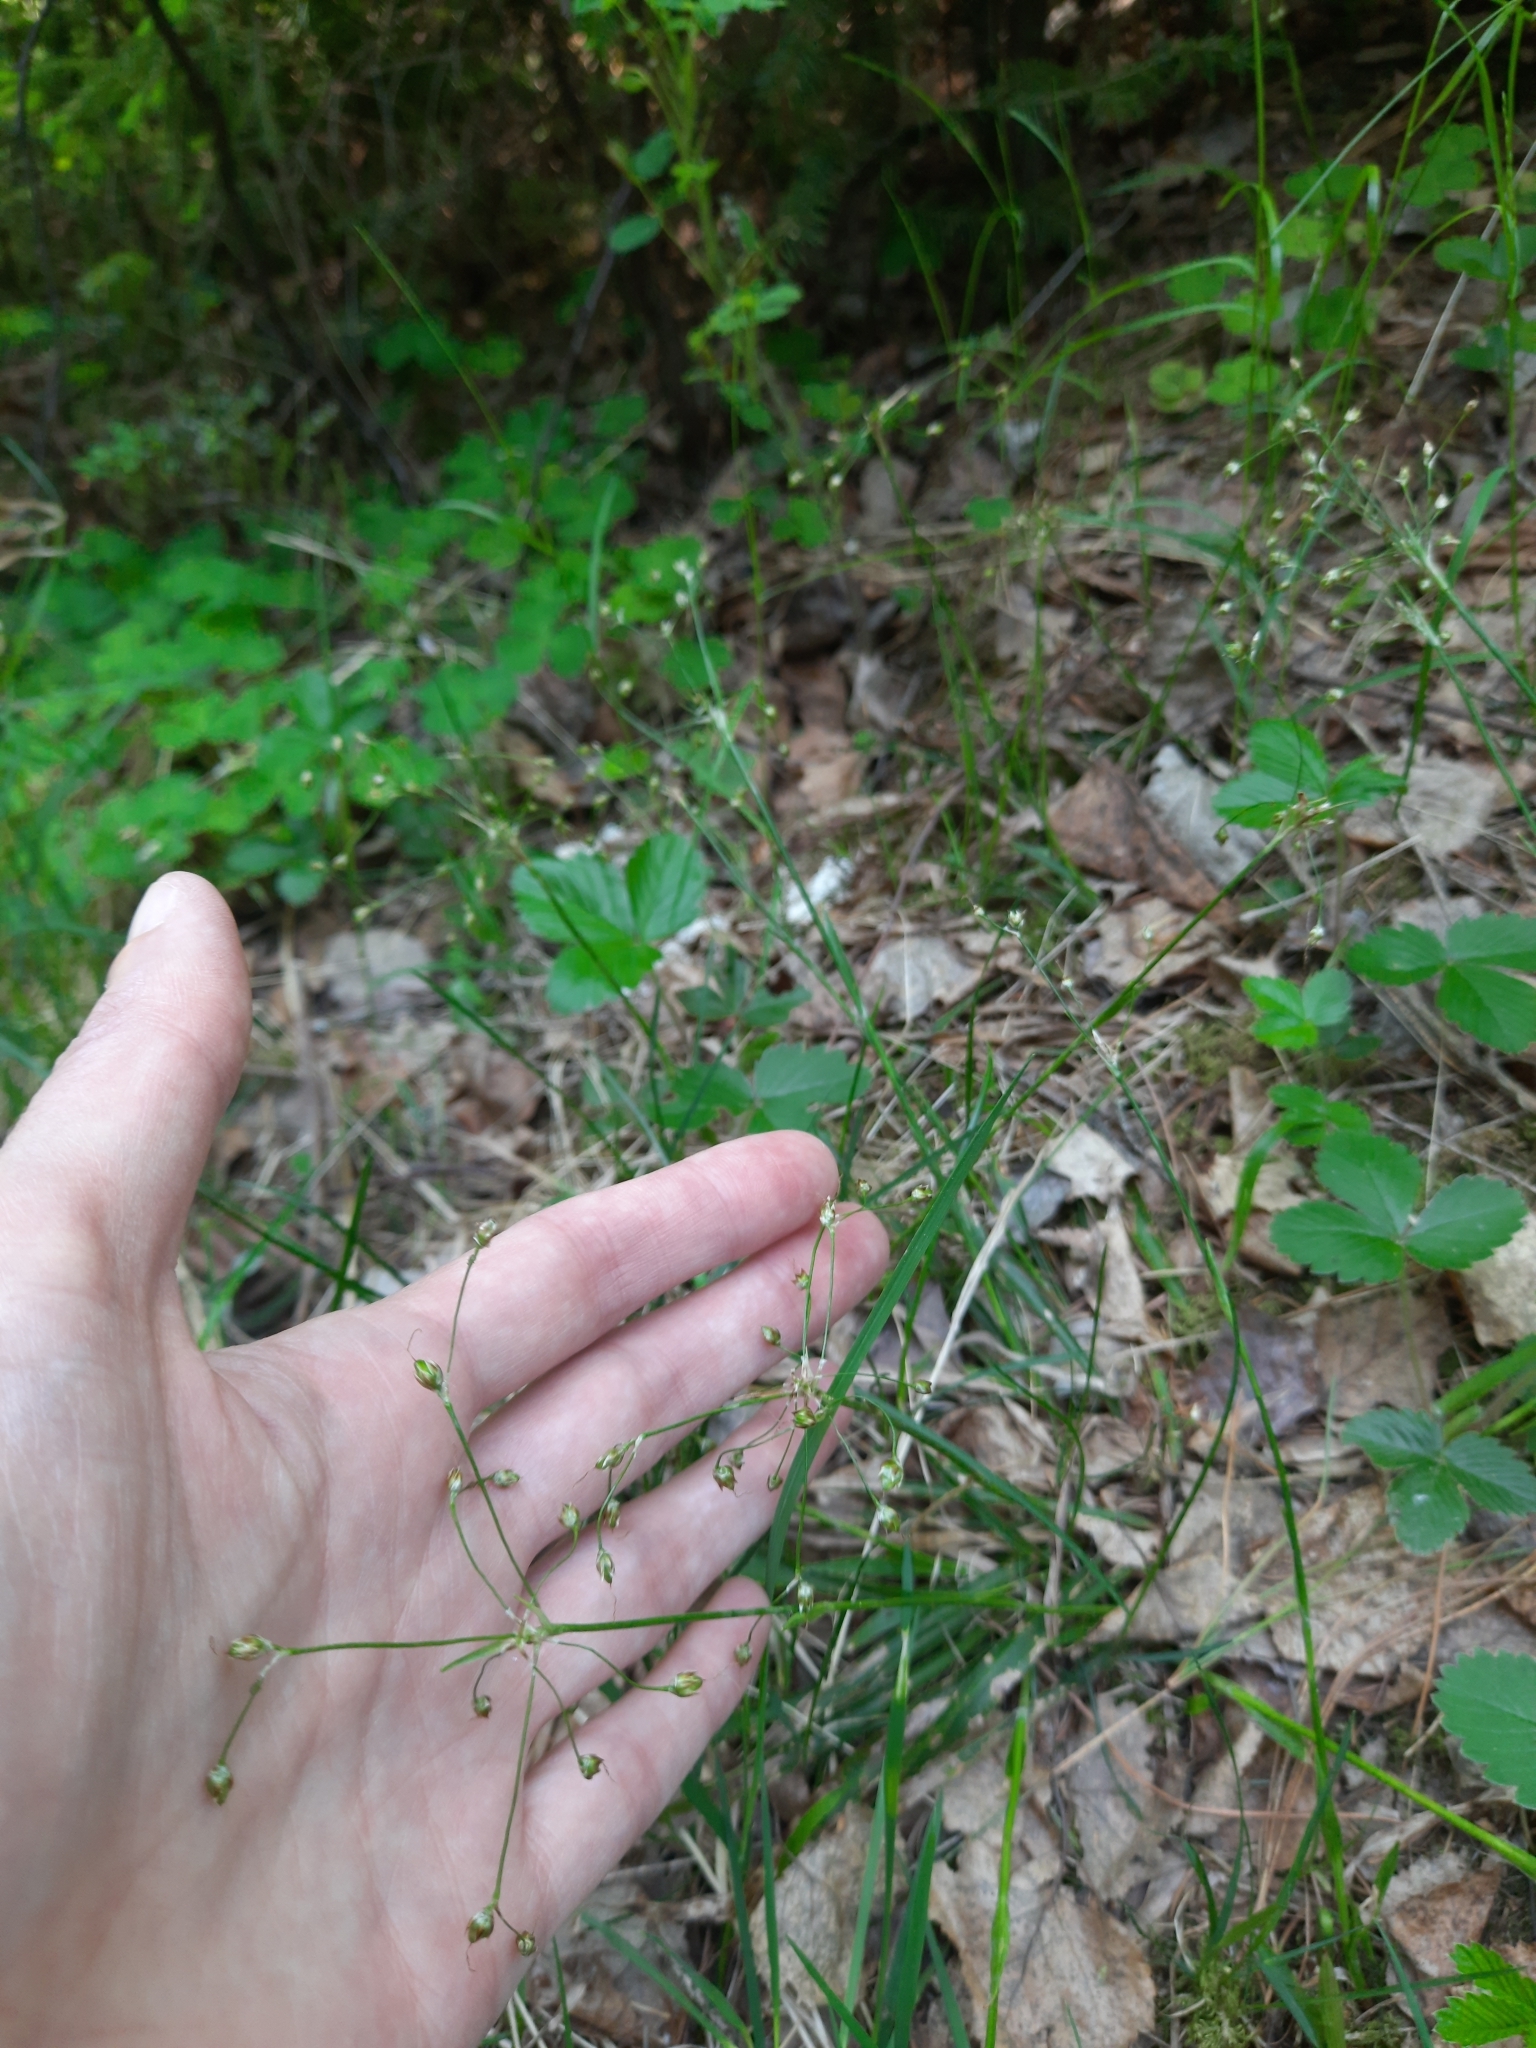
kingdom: Plantae
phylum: Tracheophyta
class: Liliopsida
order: Poales
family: Juncaceae
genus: Luzula
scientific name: Luzula pilosa
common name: Hairy wood-rush
